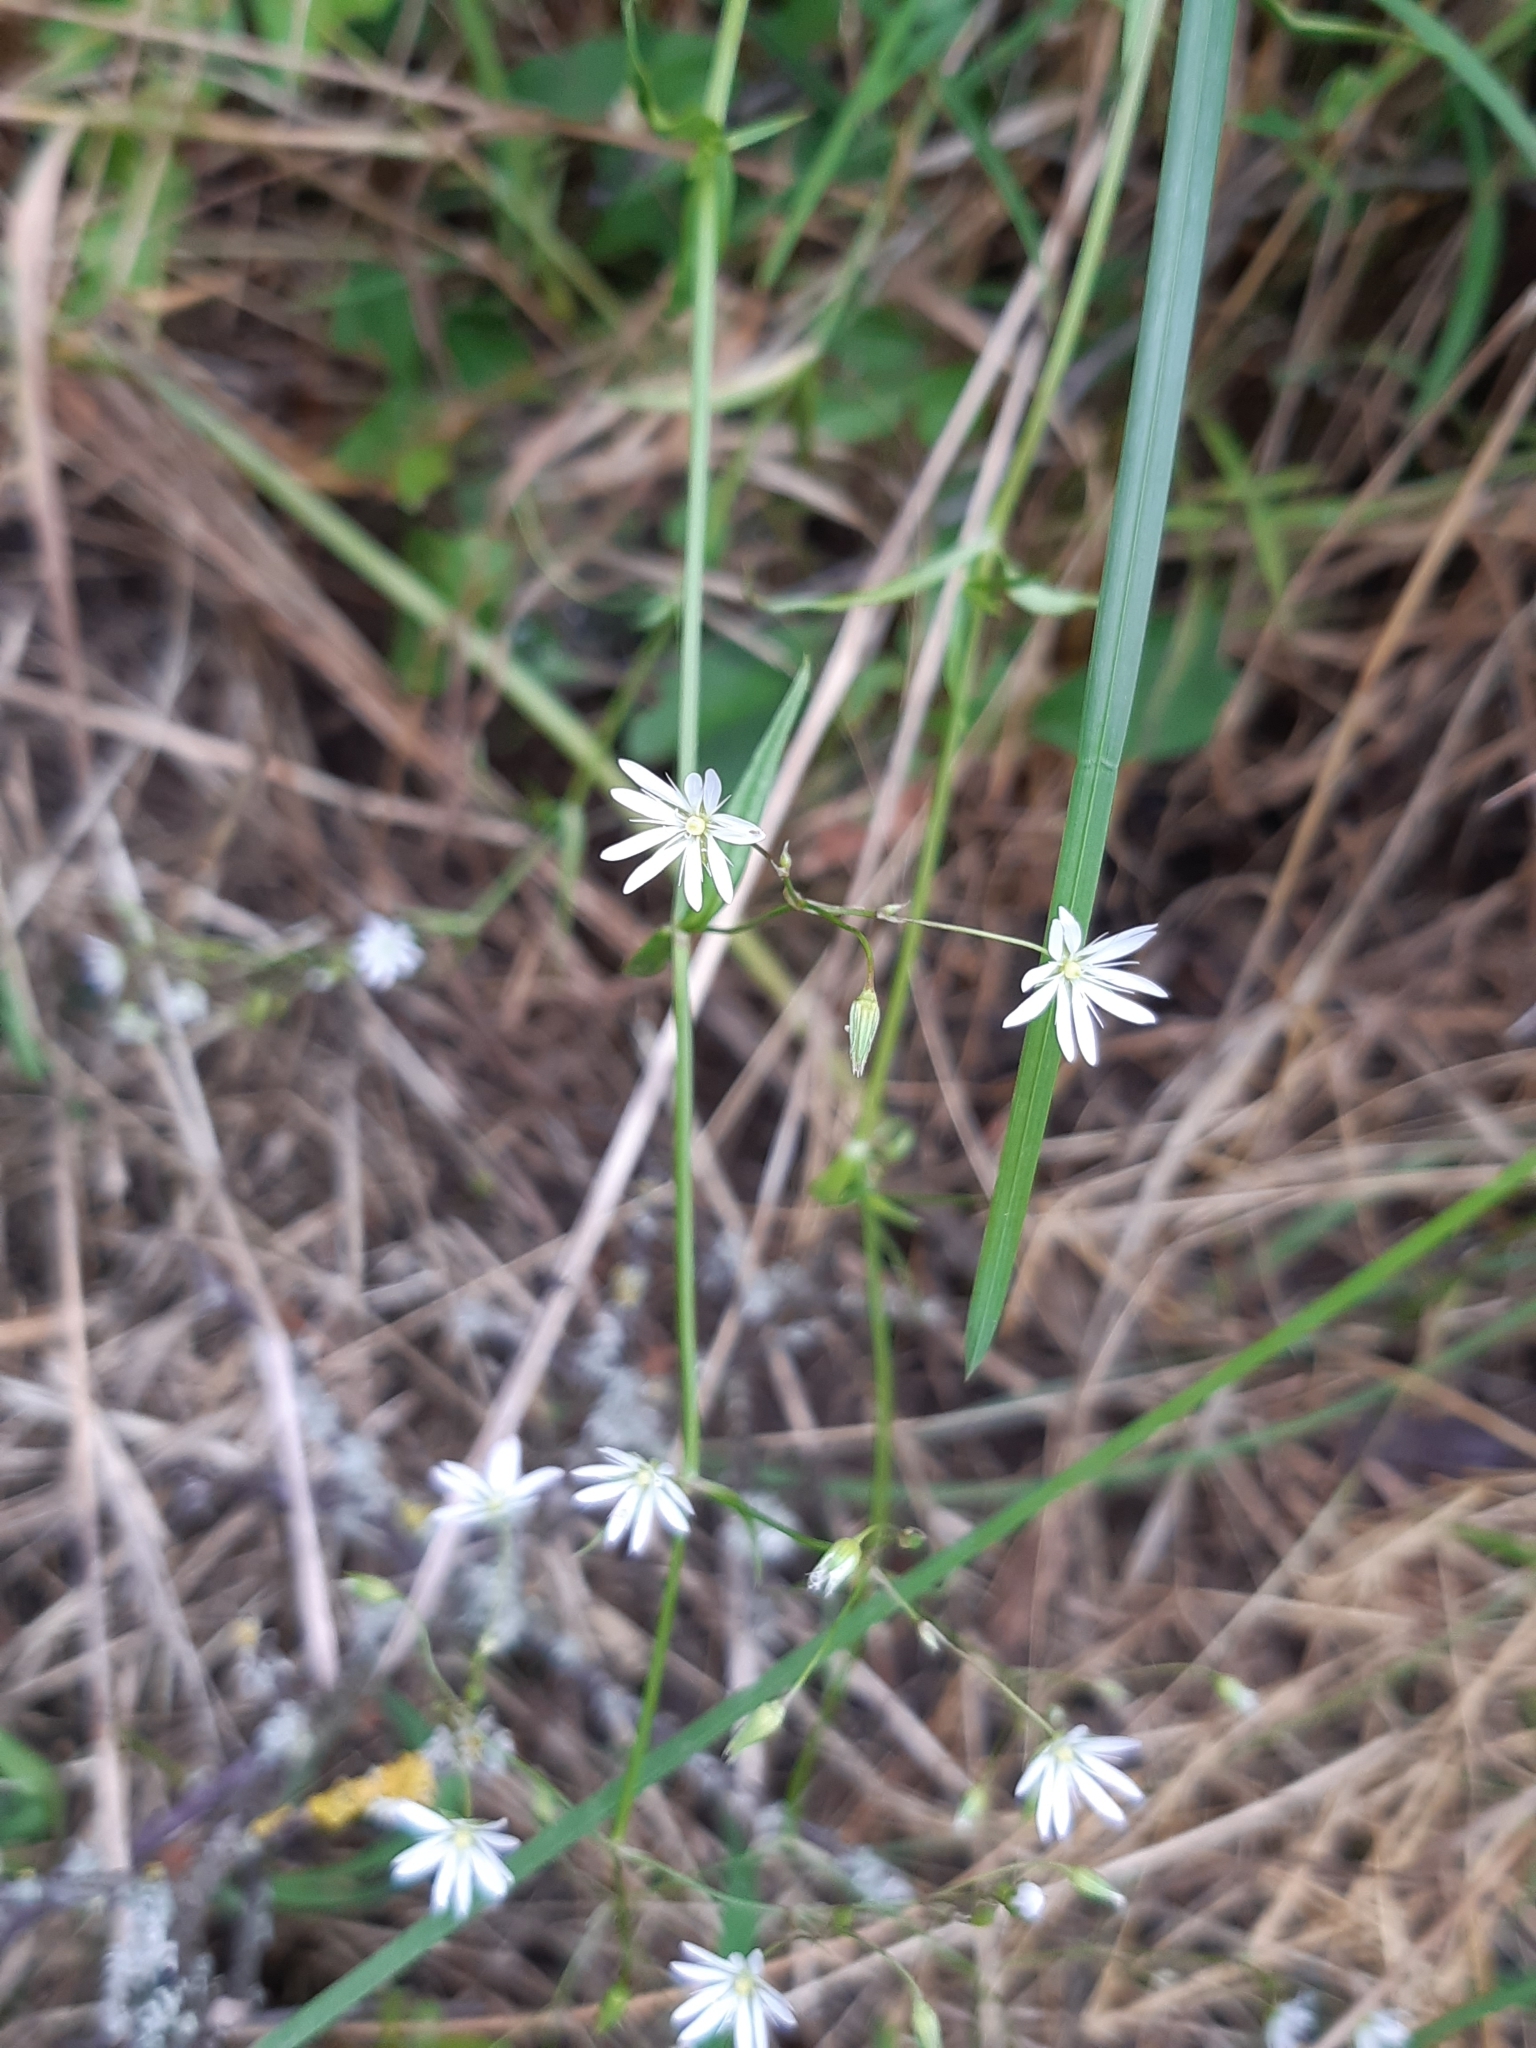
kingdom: Plantae
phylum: Tracheophyta
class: Magnoliopsida
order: Caryophyllales
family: Caryophyllaceae
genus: Stellaria
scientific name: Stellaria graminea
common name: Grass-like starwort
